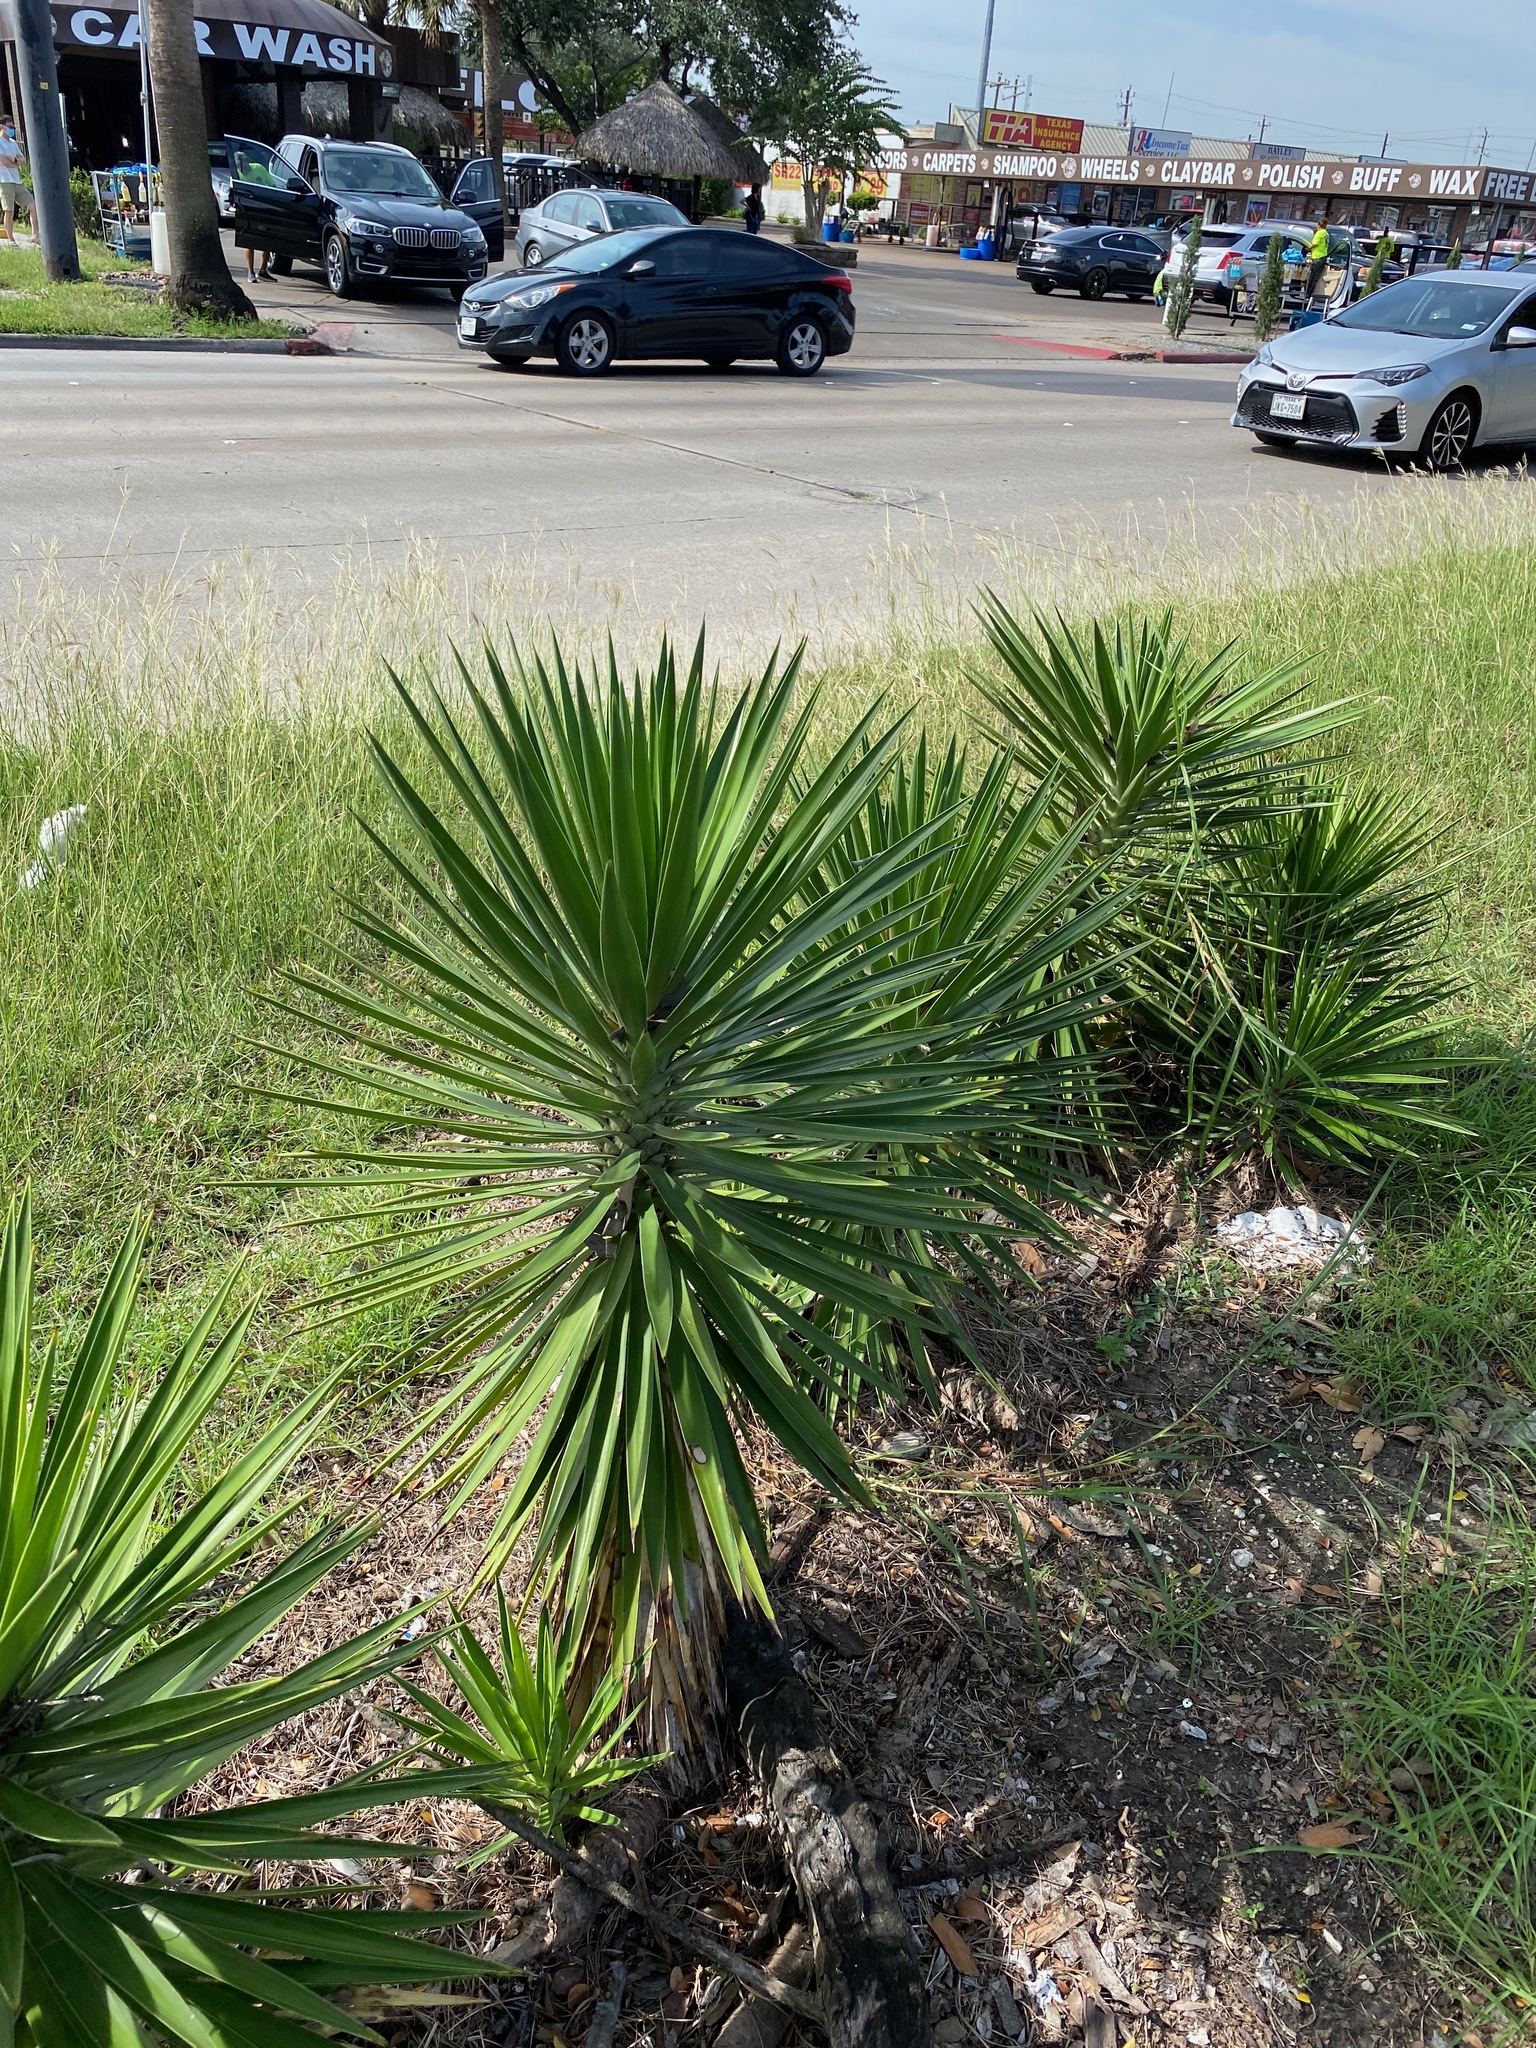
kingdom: Plantae
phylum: Tracheophyta
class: Liliopsida
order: Asparagales
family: Asparagaceae
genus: Yucca
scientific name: Yucca aloifolia
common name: Aloe yucca
